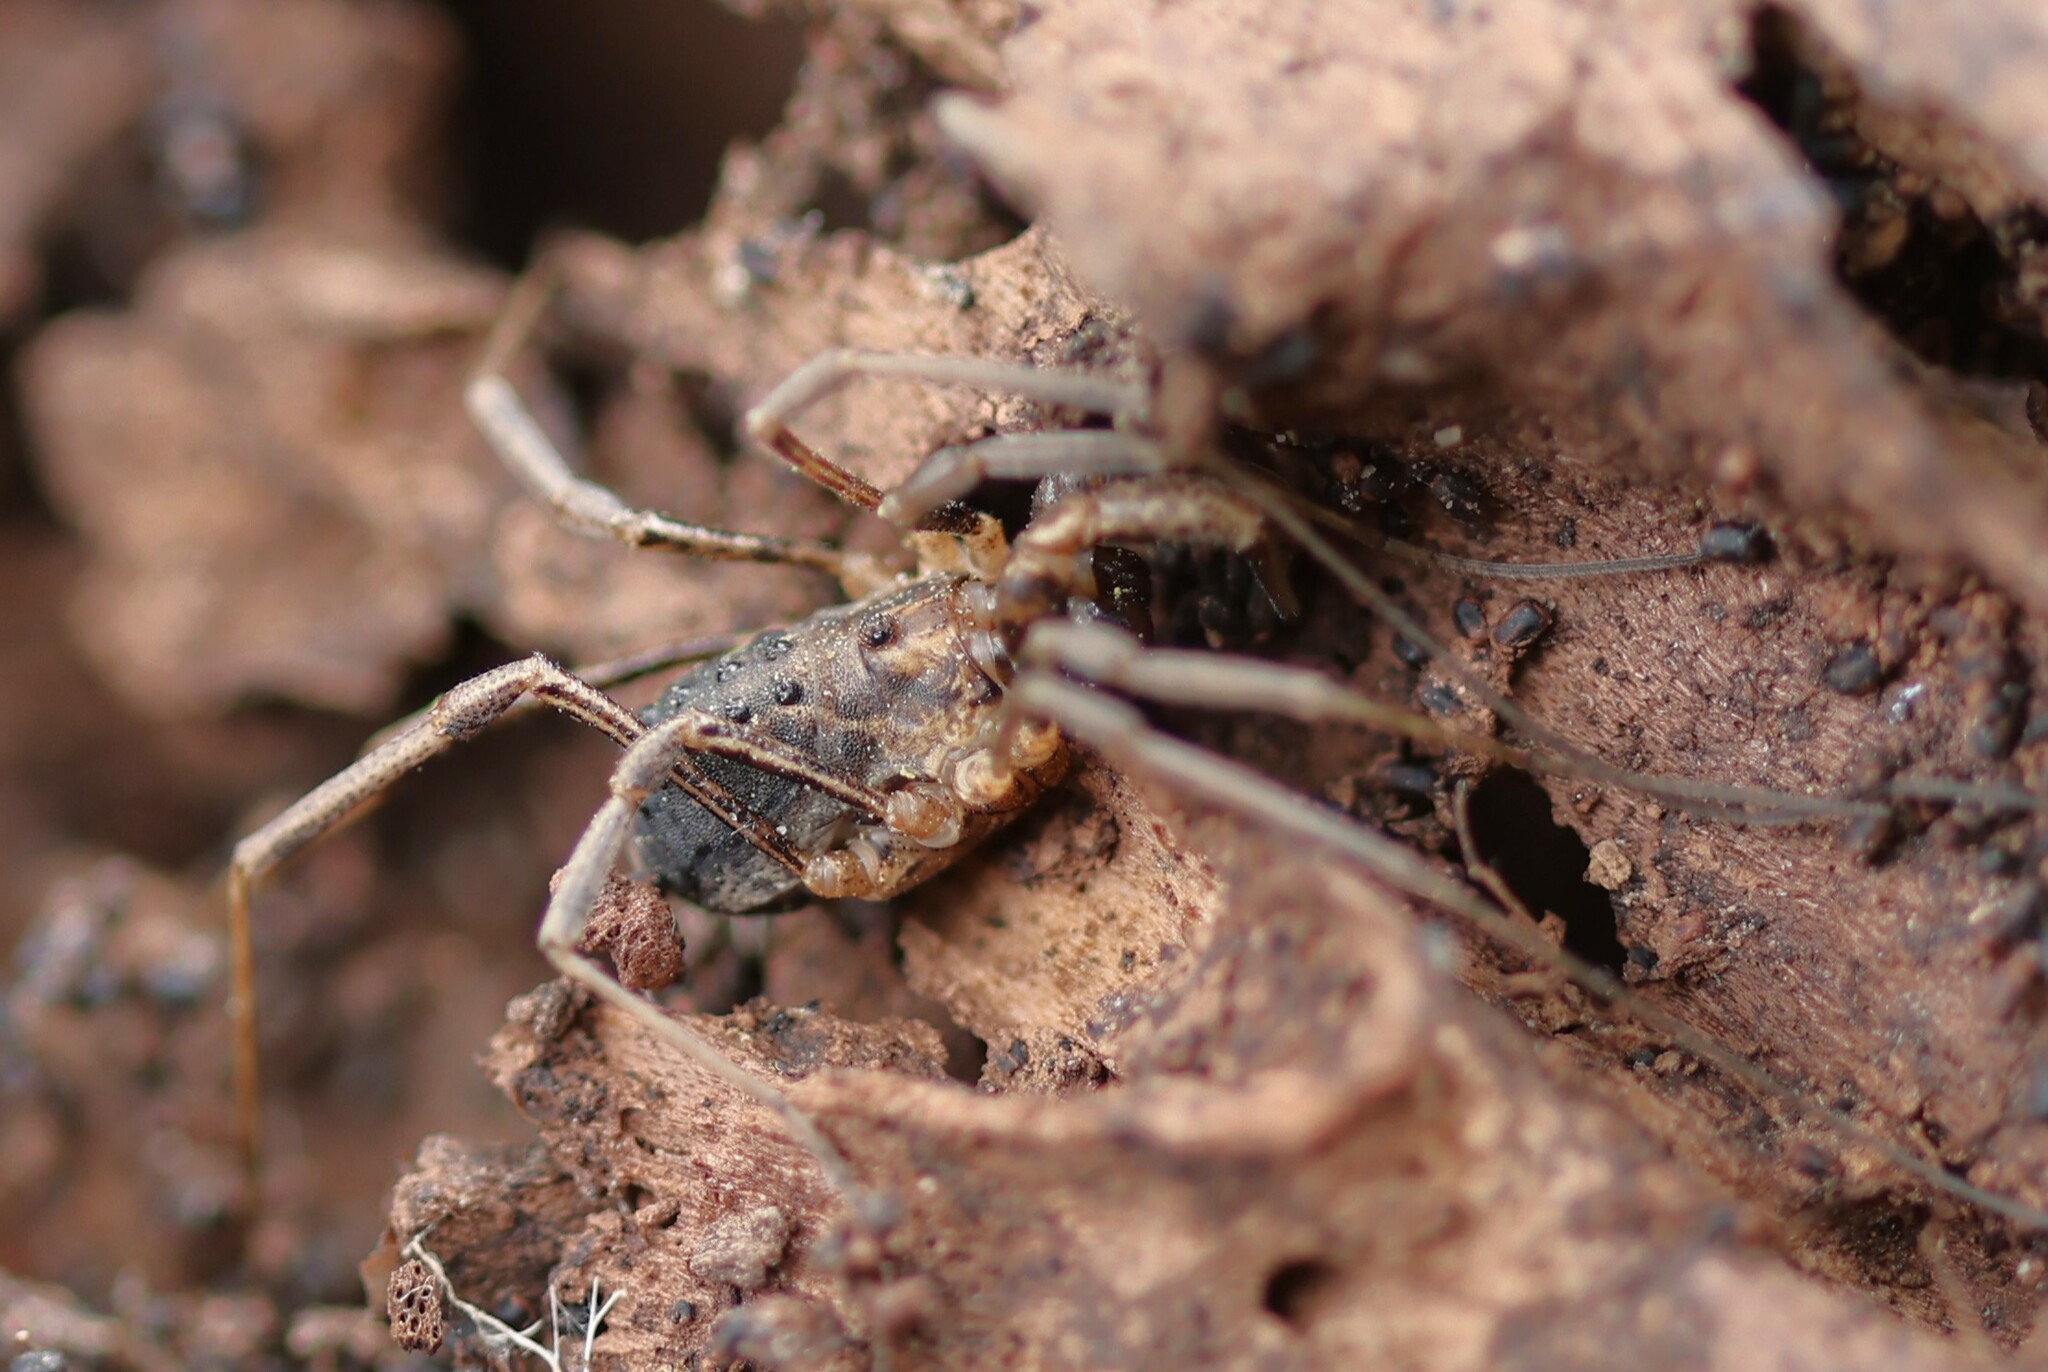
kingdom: Animalia
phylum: Arthropoda
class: Arachnida
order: Opiliones
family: Protolophidae
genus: Protolophus
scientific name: Protolophus singularis
